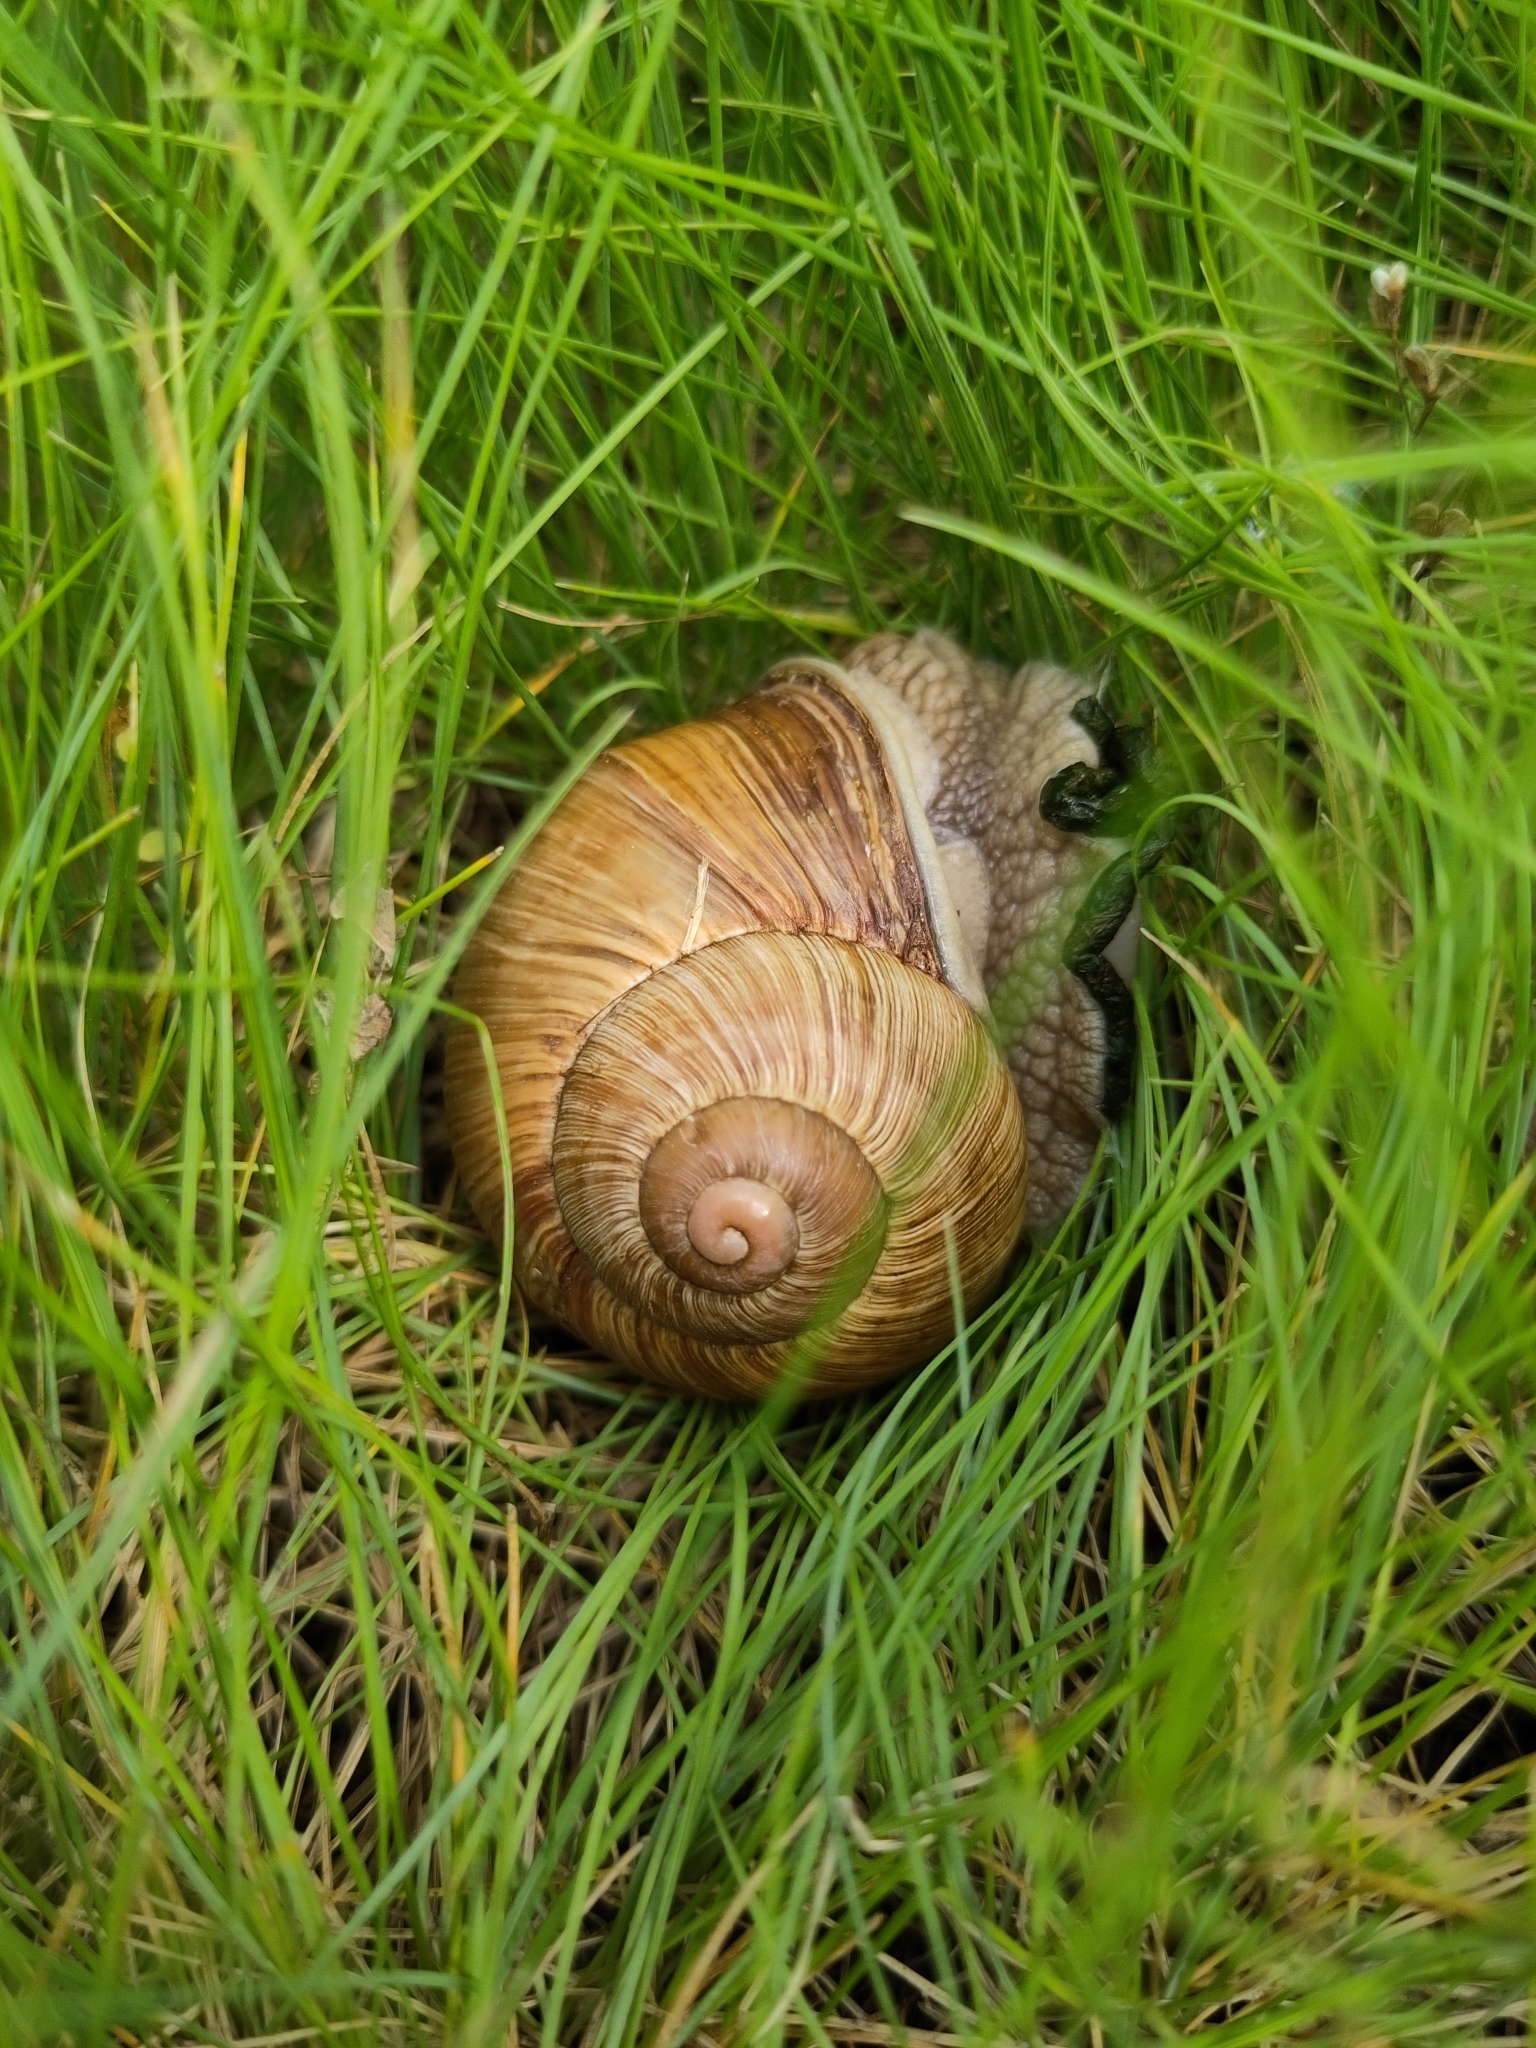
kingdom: Animalia
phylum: Mollusca
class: Gastropoda
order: Stylommatophora
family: Helicidae
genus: Helix
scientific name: Helix pomatia
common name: Roman snail
